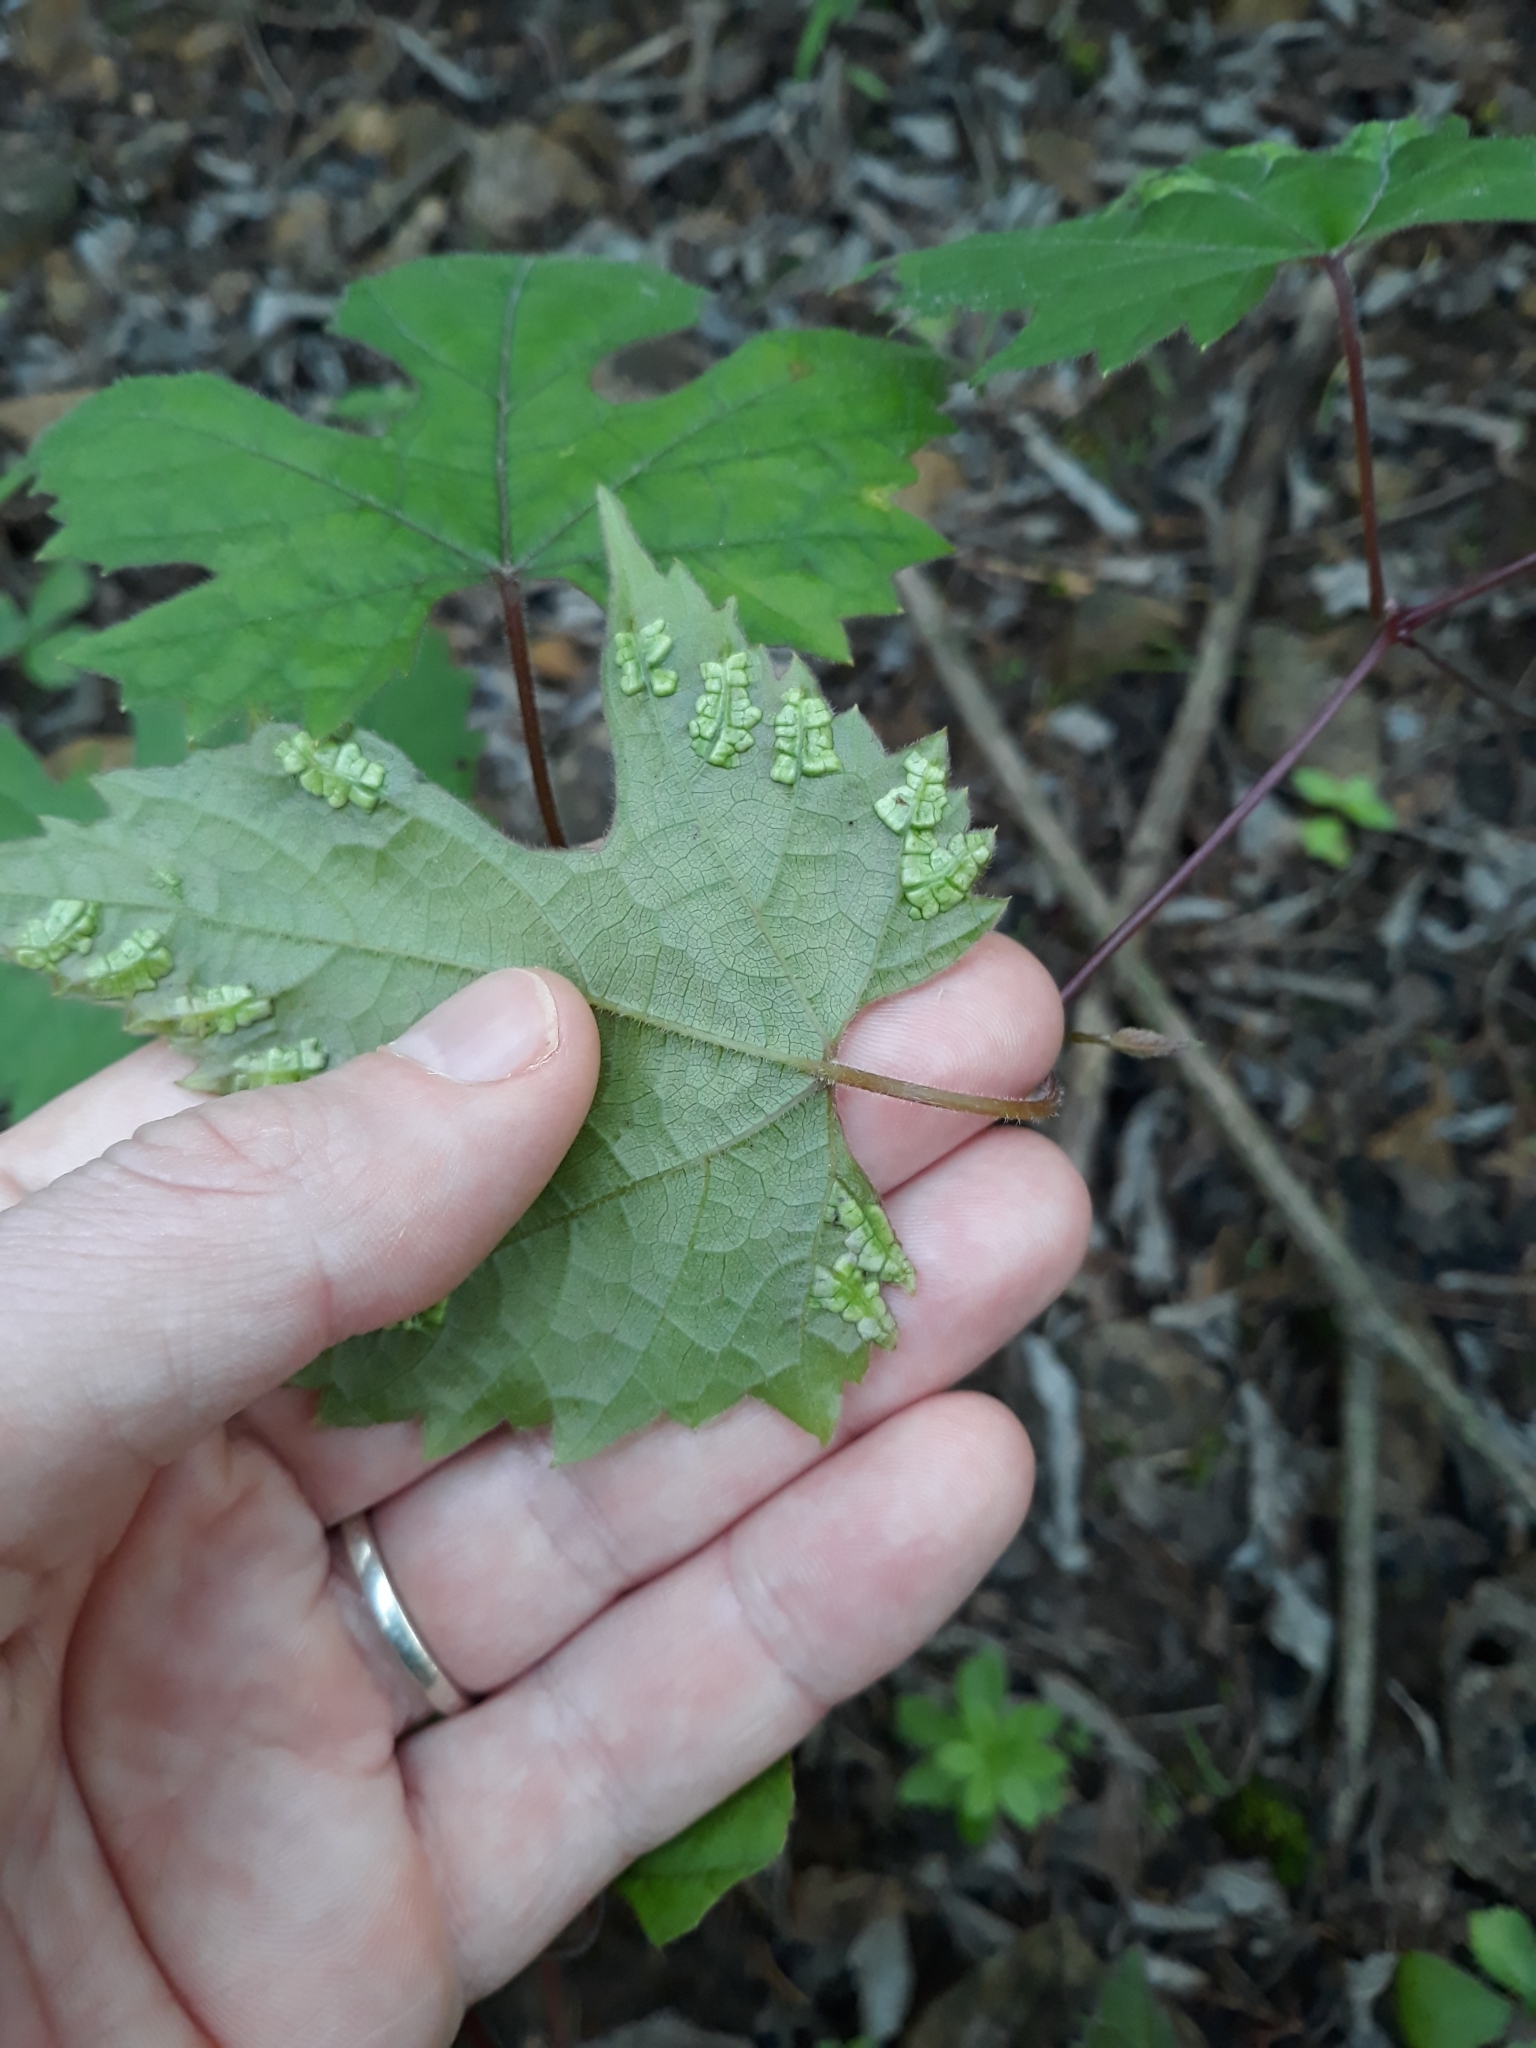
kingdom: Animalia
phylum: Arthropoda
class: Insecta
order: Lepidoptera
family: Heliozelidae
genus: Heliozela
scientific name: Heliozela aesella
